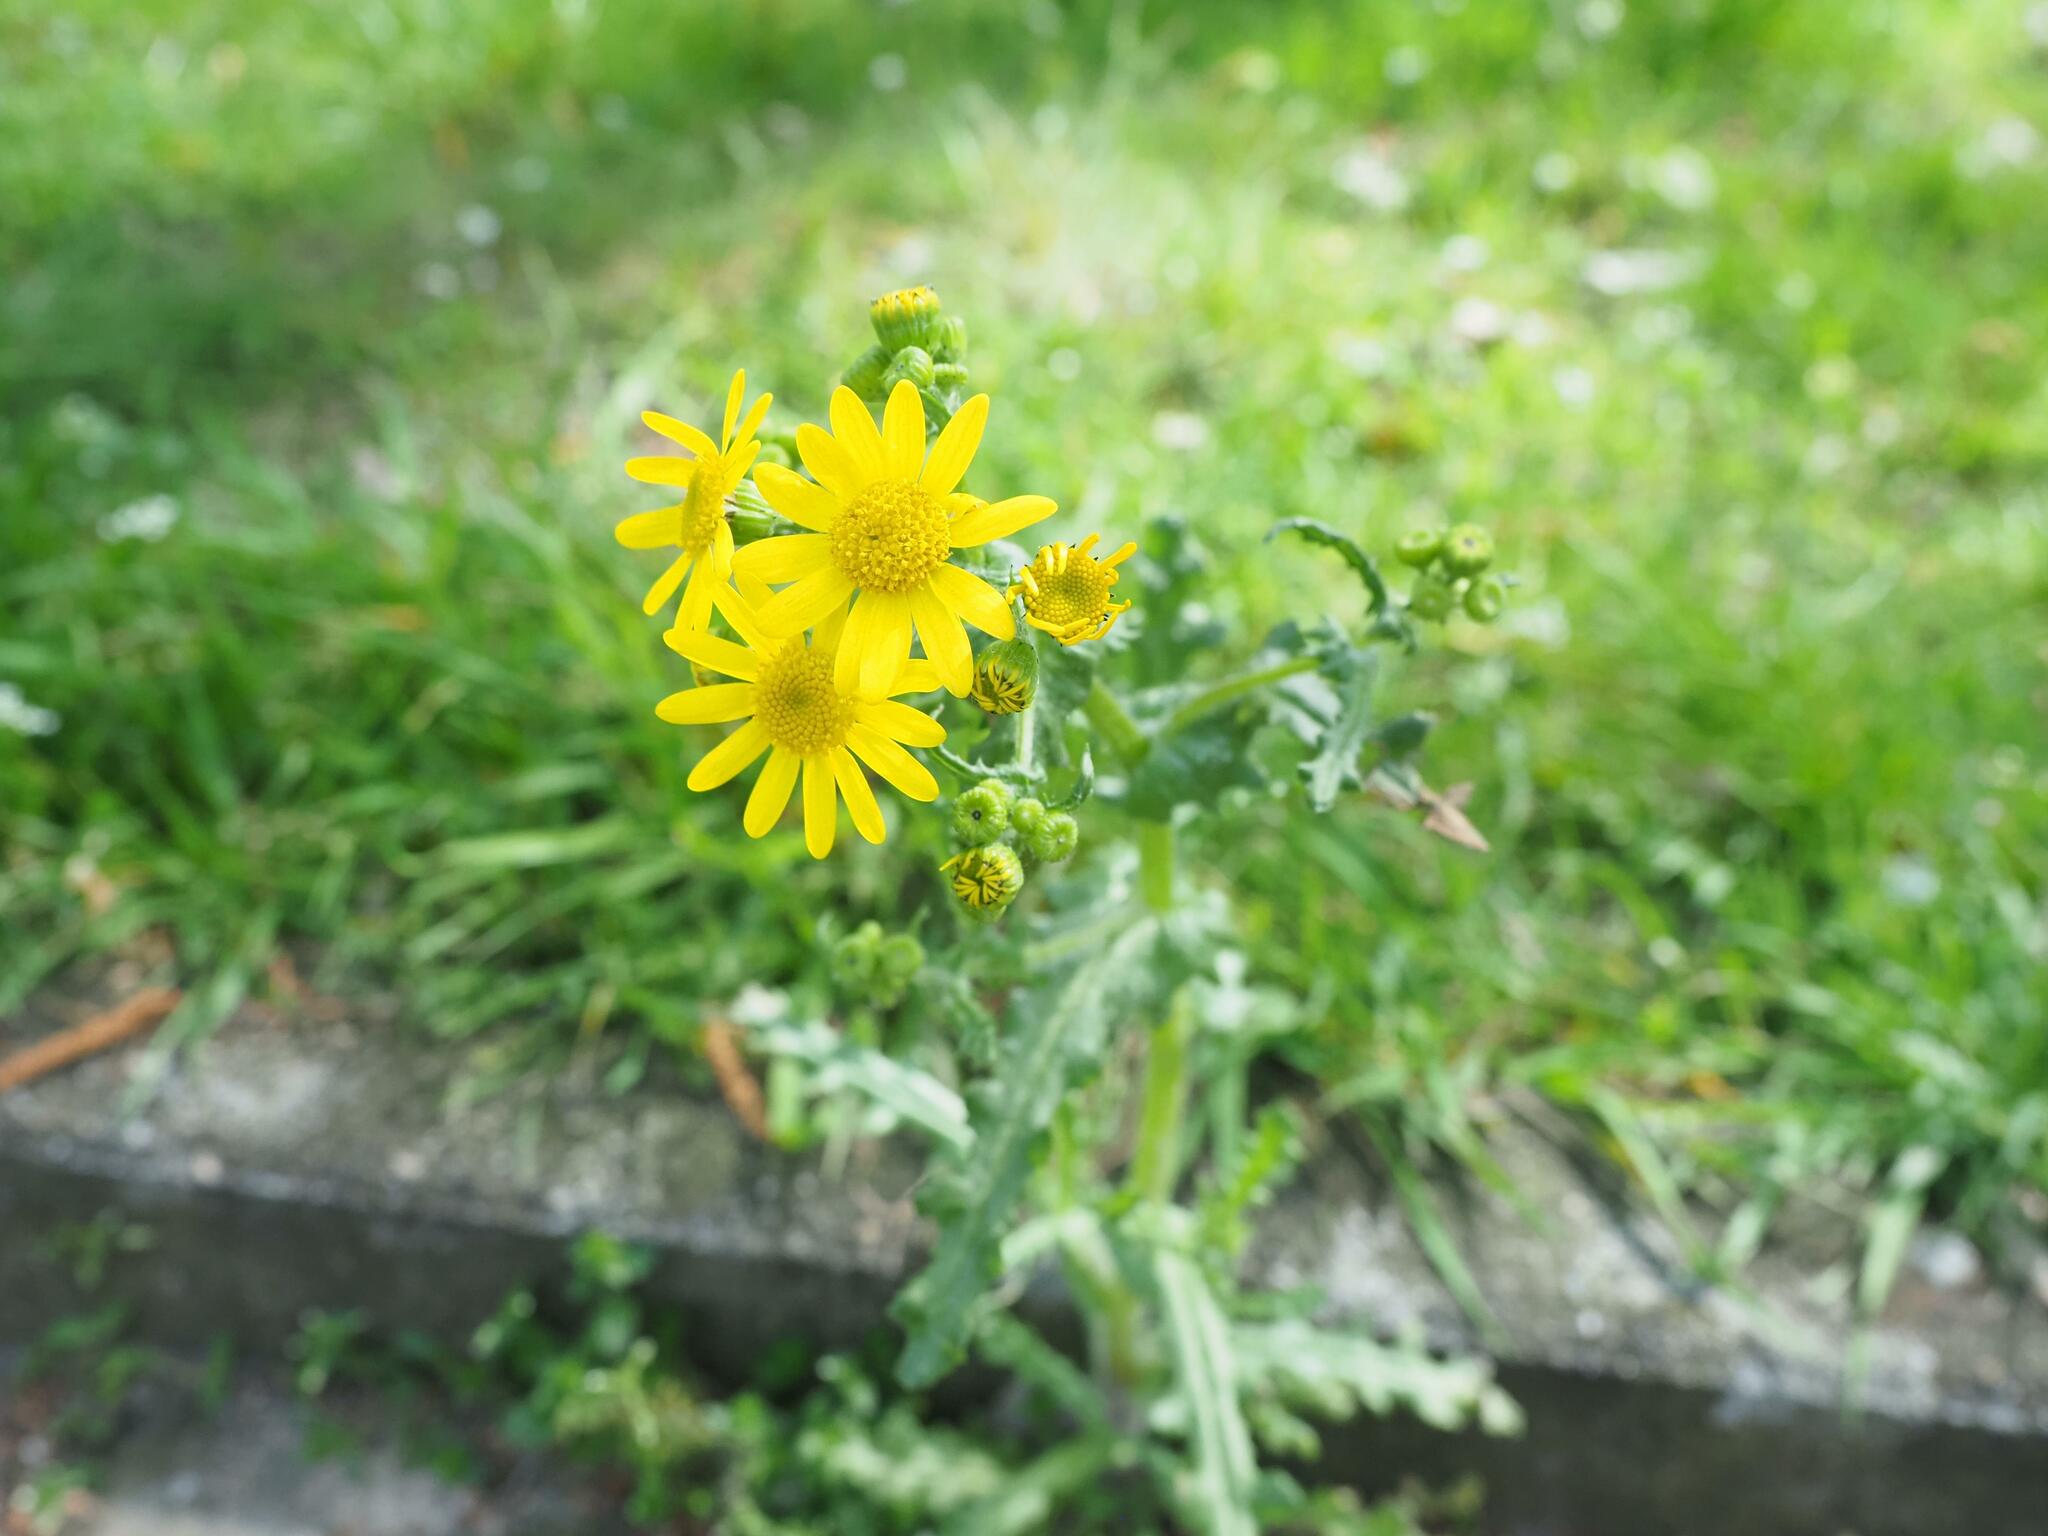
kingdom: Plantae
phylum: Tracheophyta
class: Magnoliopsida
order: Asterales
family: Asteraceae
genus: Senecio
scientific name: Senecio vernalis
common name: Eastern groundsel
